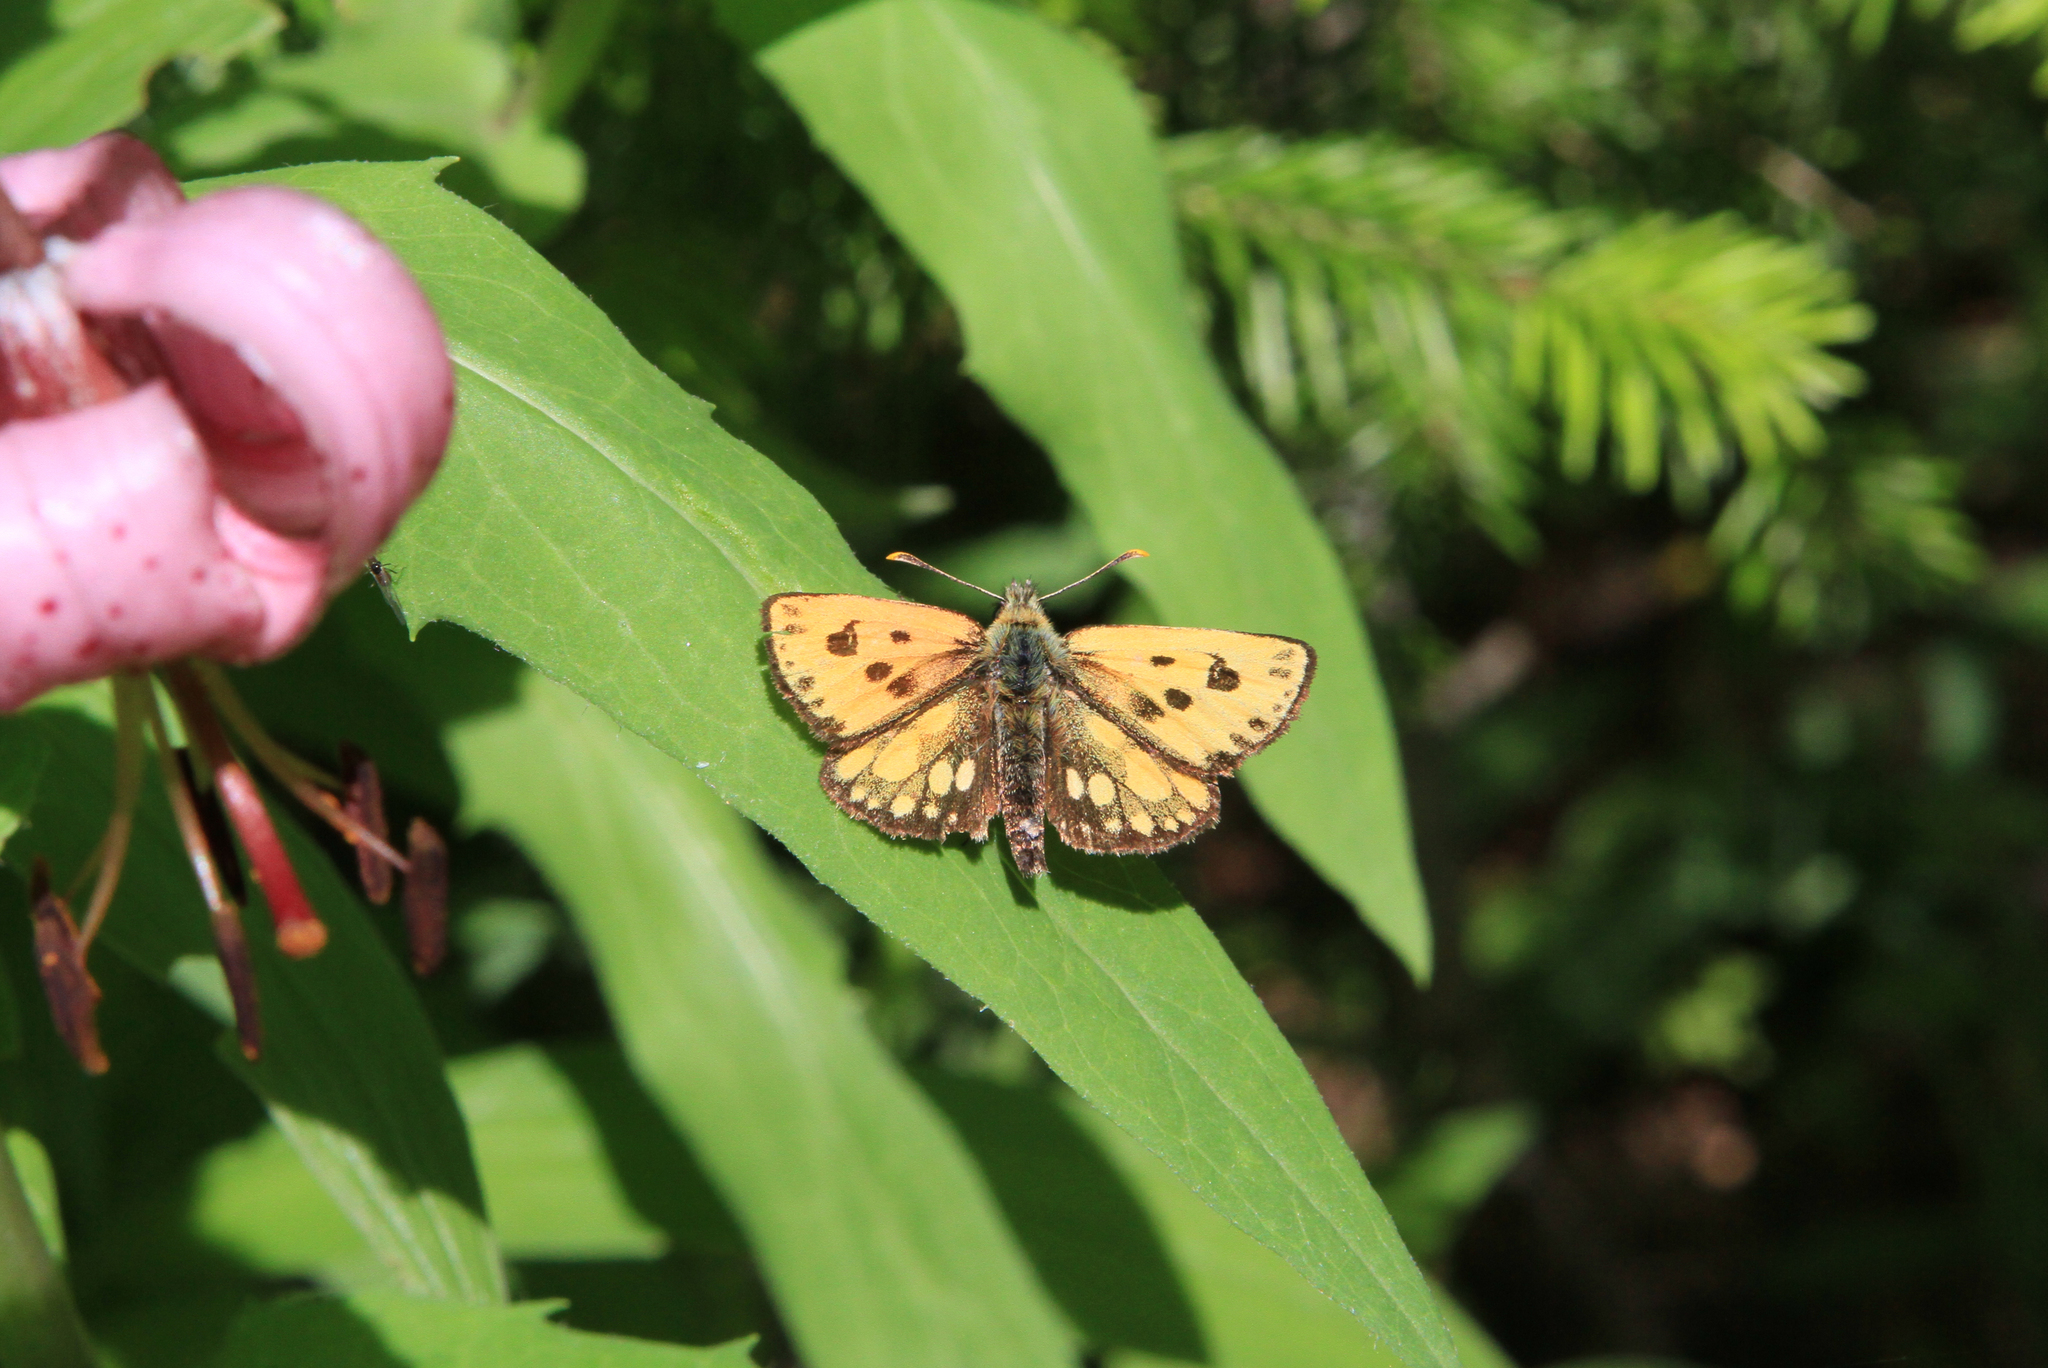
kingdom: Animalia
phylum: Arthropoda
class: Insecta
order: Lepidoptera
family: Hesperiidae
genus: Carterocephalus
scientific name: Carterocephalus silvicola
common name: Northern chequered skipper
